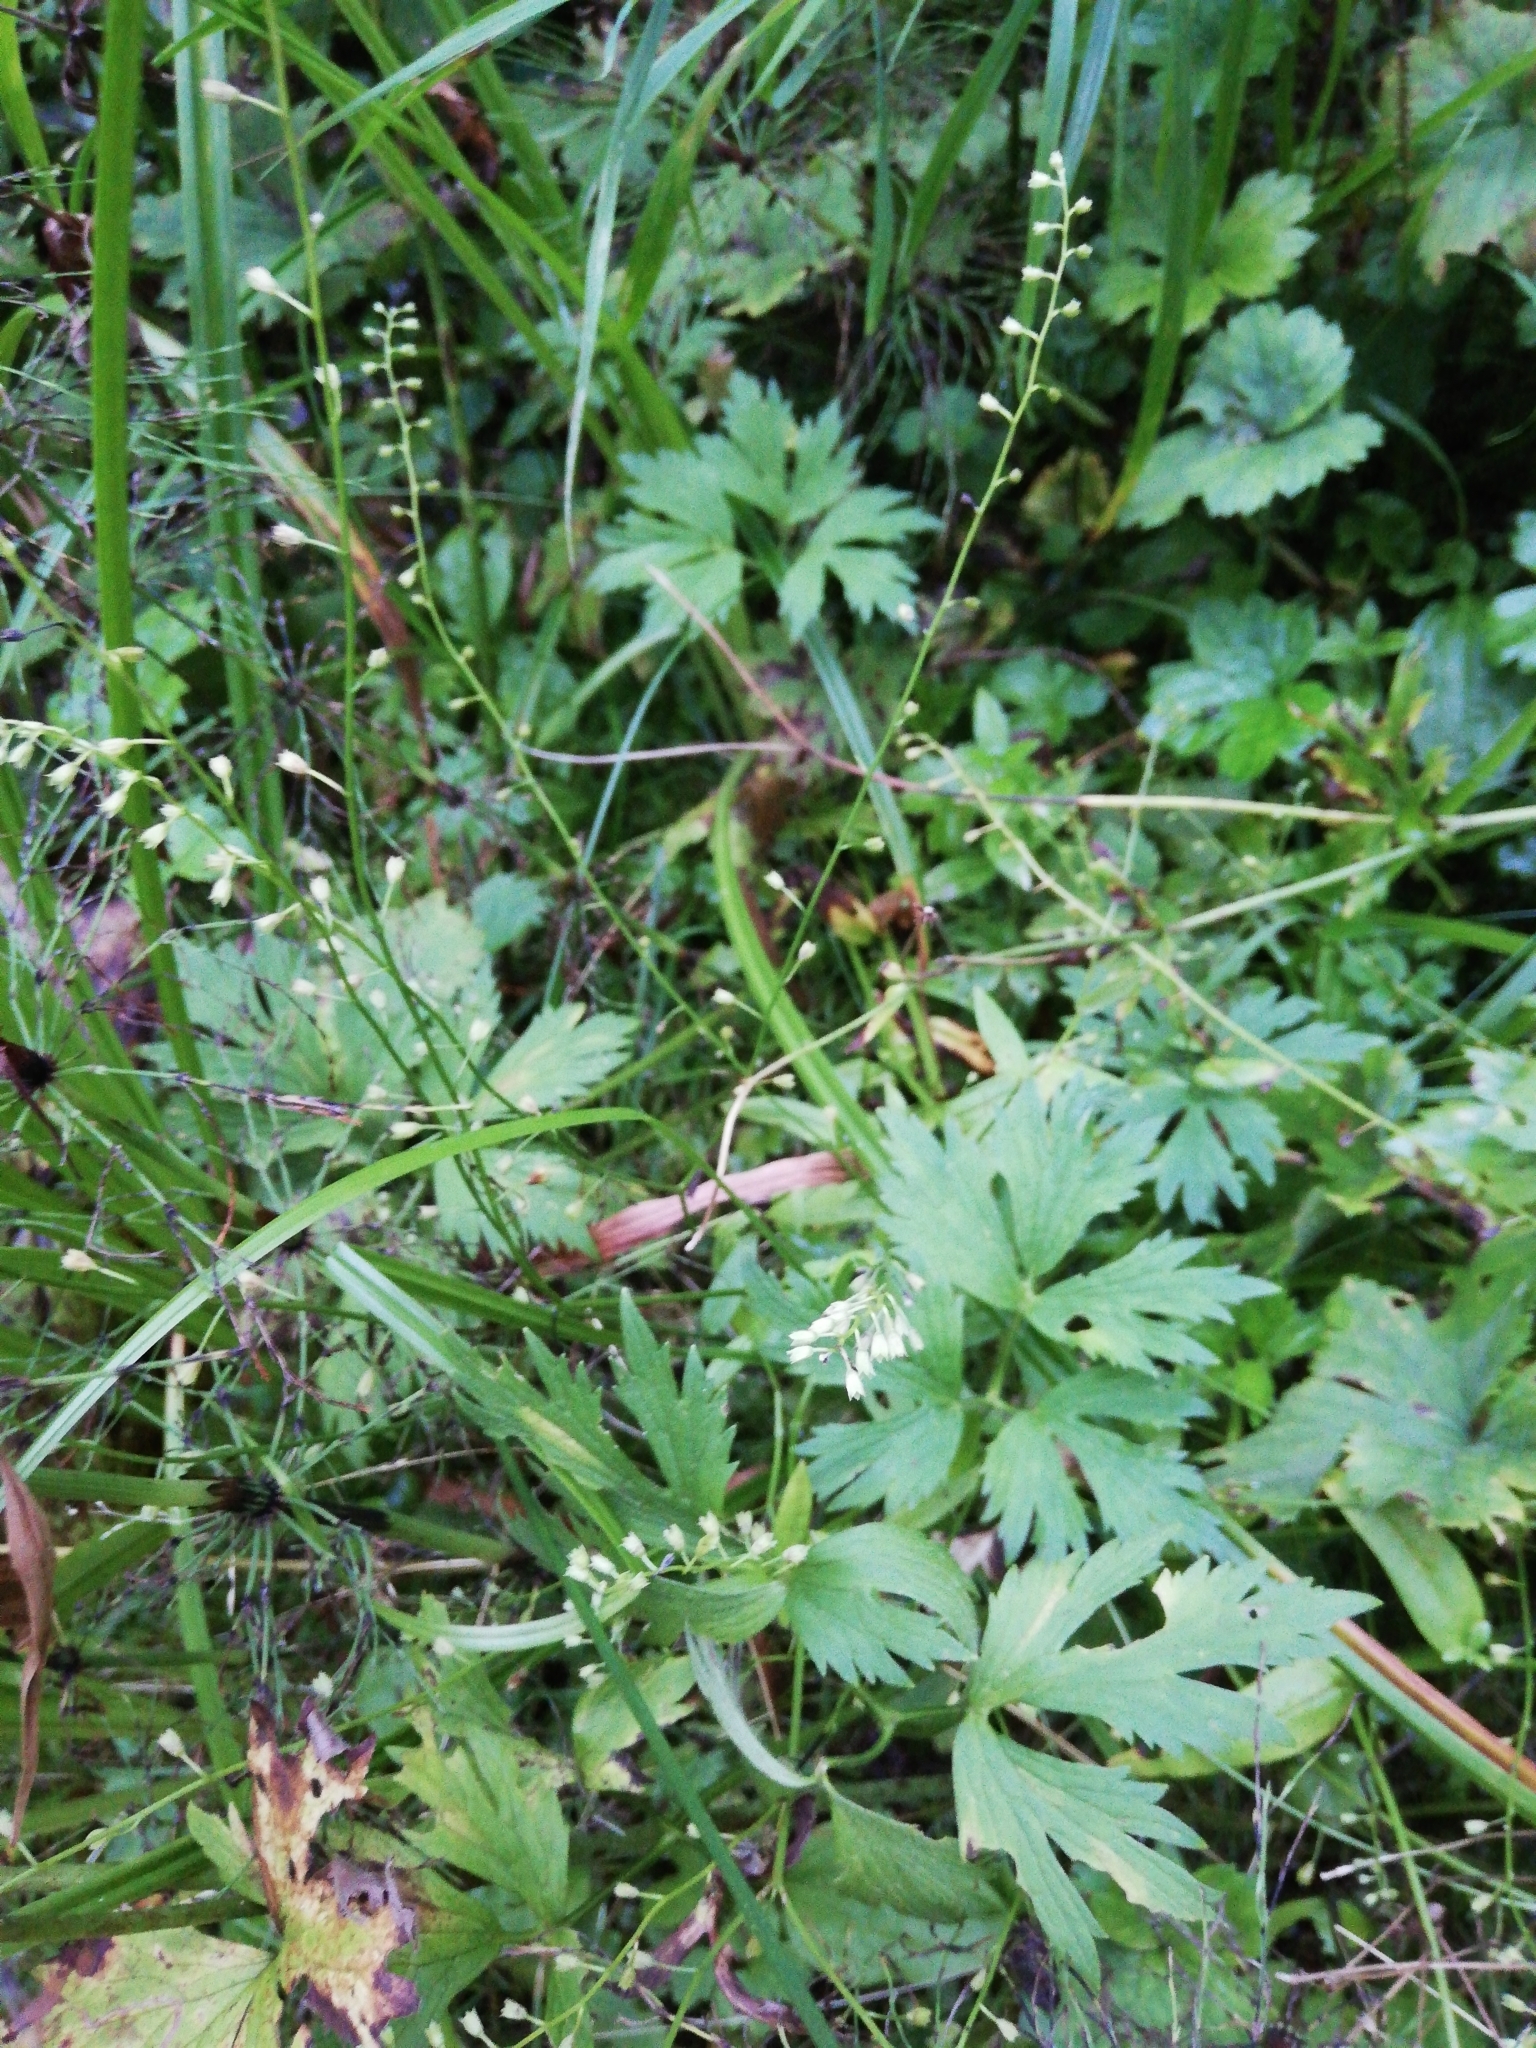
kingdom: Plantae
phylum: Tracheophyta
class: Magnoliopsida
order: Boraginales
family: Boraginaceae
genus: Myosotis
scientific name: Myosotis scorpioides
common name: Water forget-me-not
